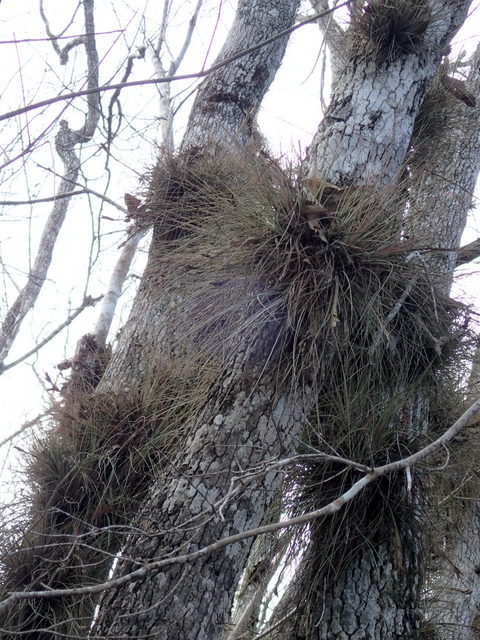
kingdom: Plantae
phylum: Tracheophyta
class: Liliopsida
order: Poales
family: Bromeliaceae
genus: Tillandsia
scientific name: Tillandsia bartramii
